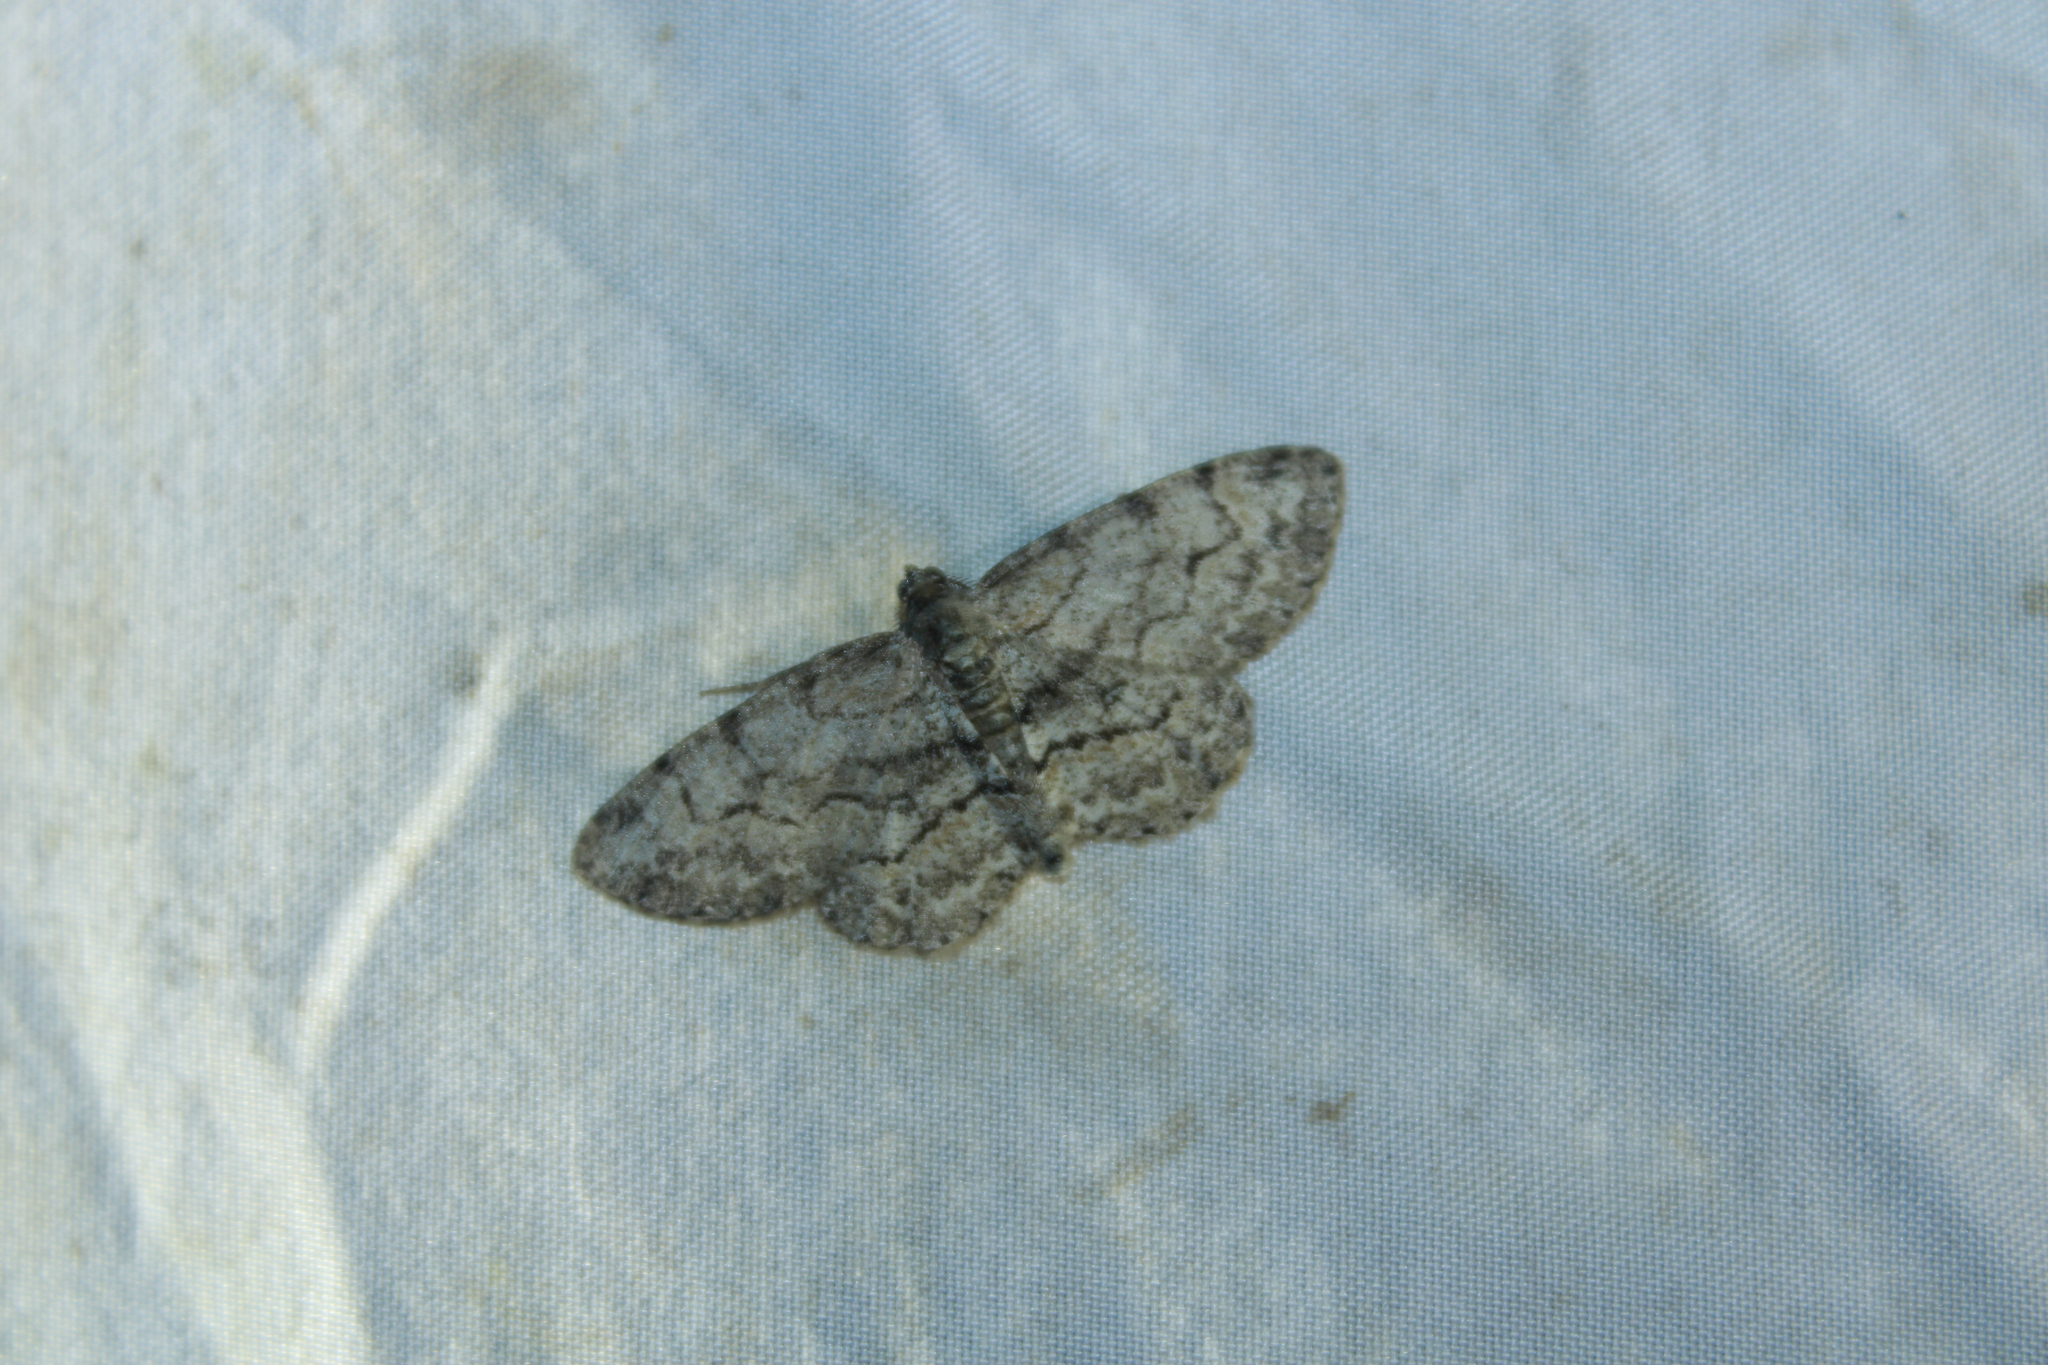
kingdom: Animalia
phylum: Arthropoda
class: Insecta
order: Lepidoptera
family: Geometridae
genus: Iridopsis
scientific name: Iridopsis ephyraria
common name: Pale-winged gray
